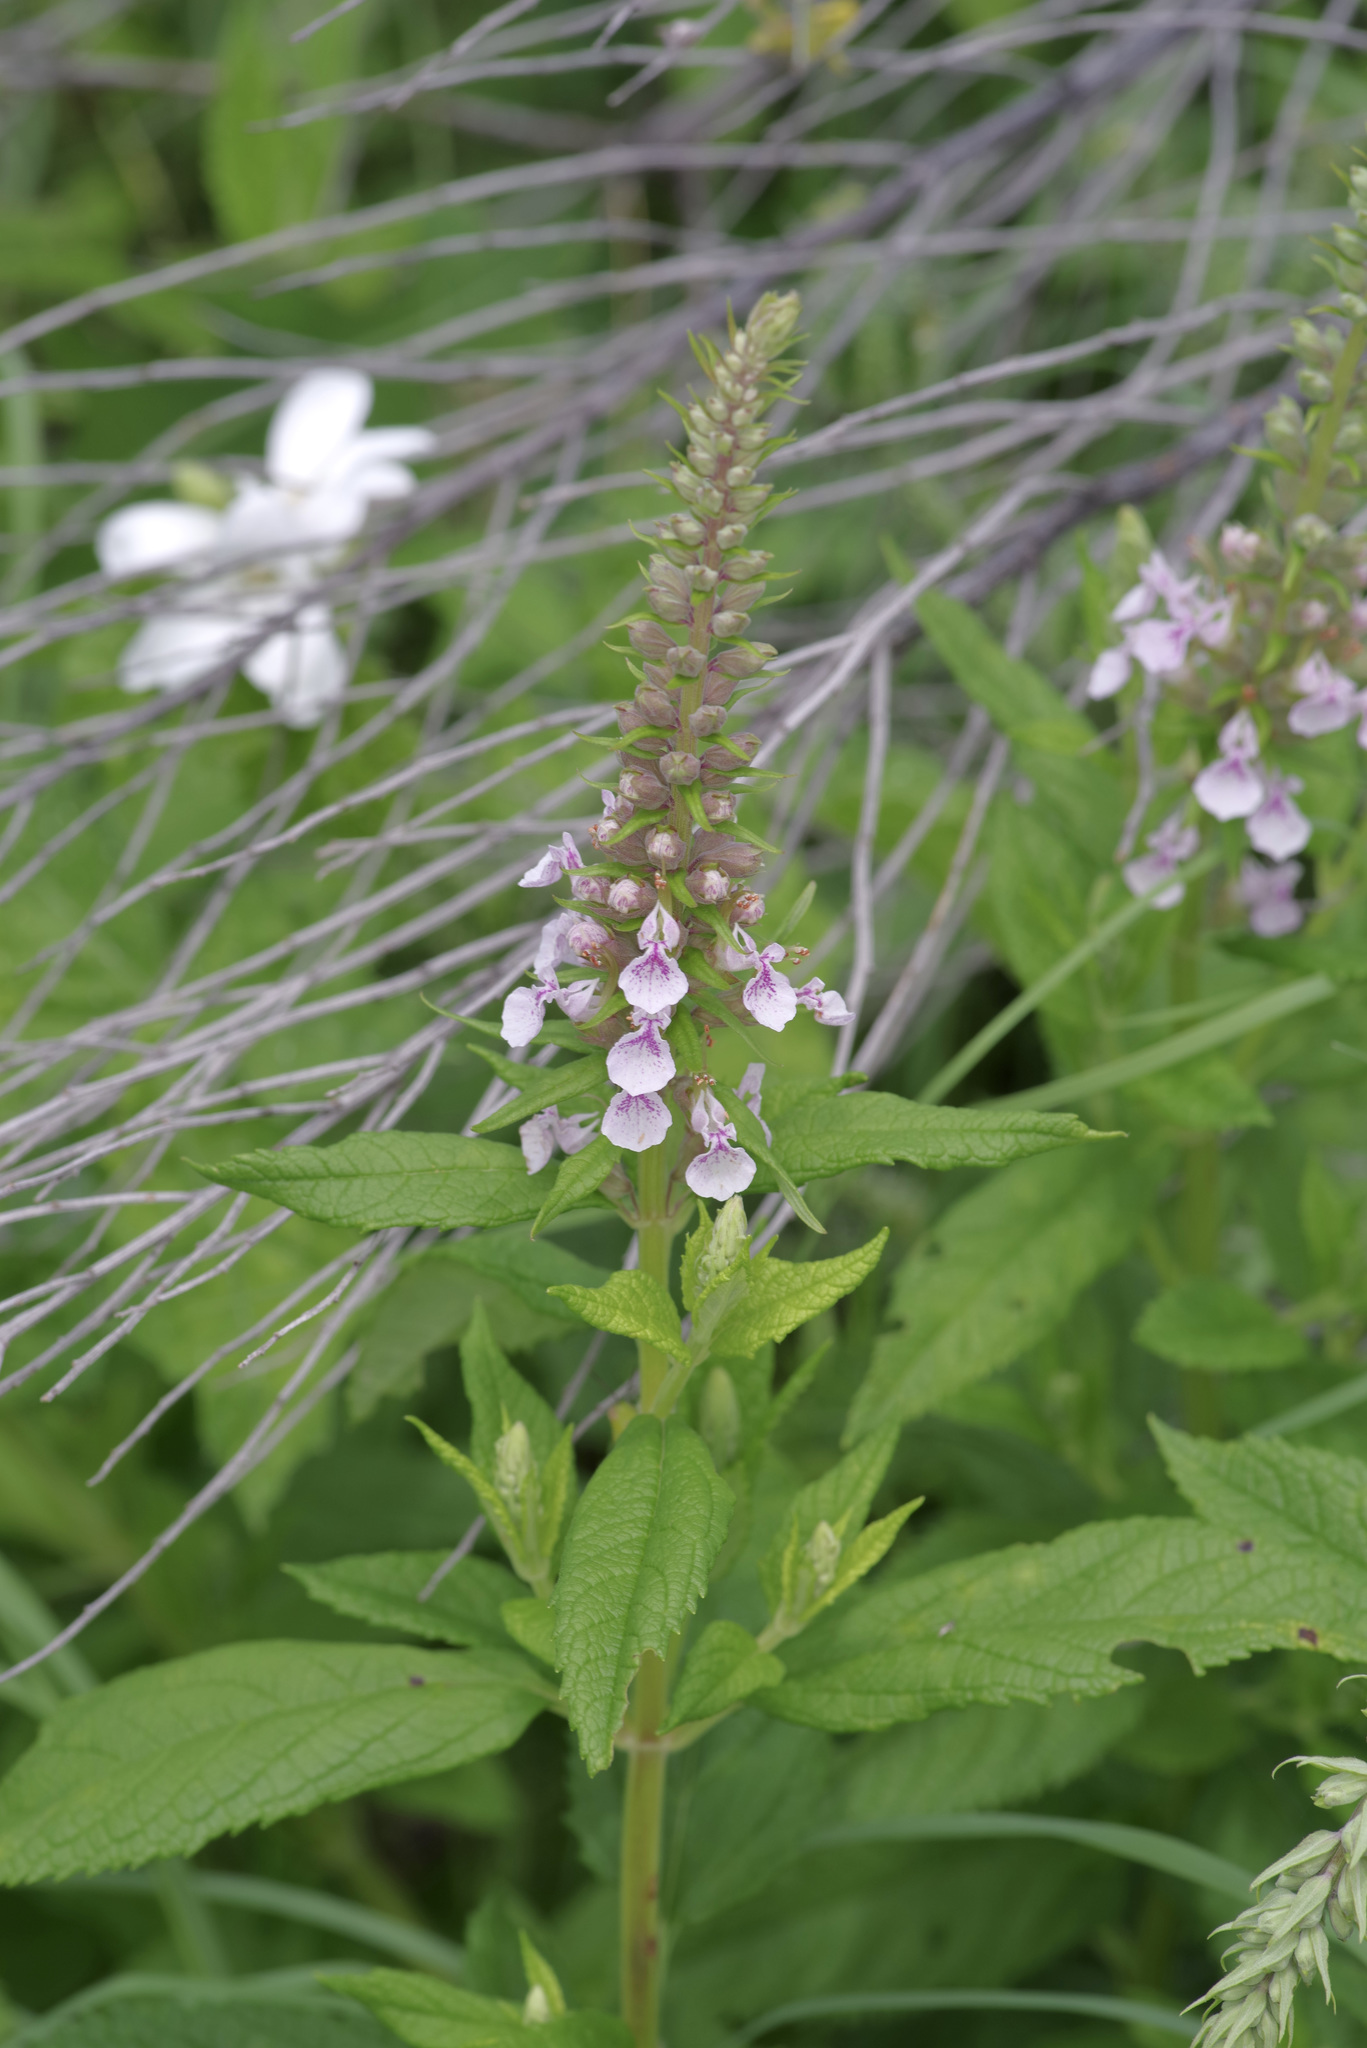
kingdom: Plantae
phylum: Tracheophyta
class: Magnoliopsida
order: Lamiales
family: Lamiaceae
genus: Teucrium
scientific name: Teucrium canadense
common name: American germander
